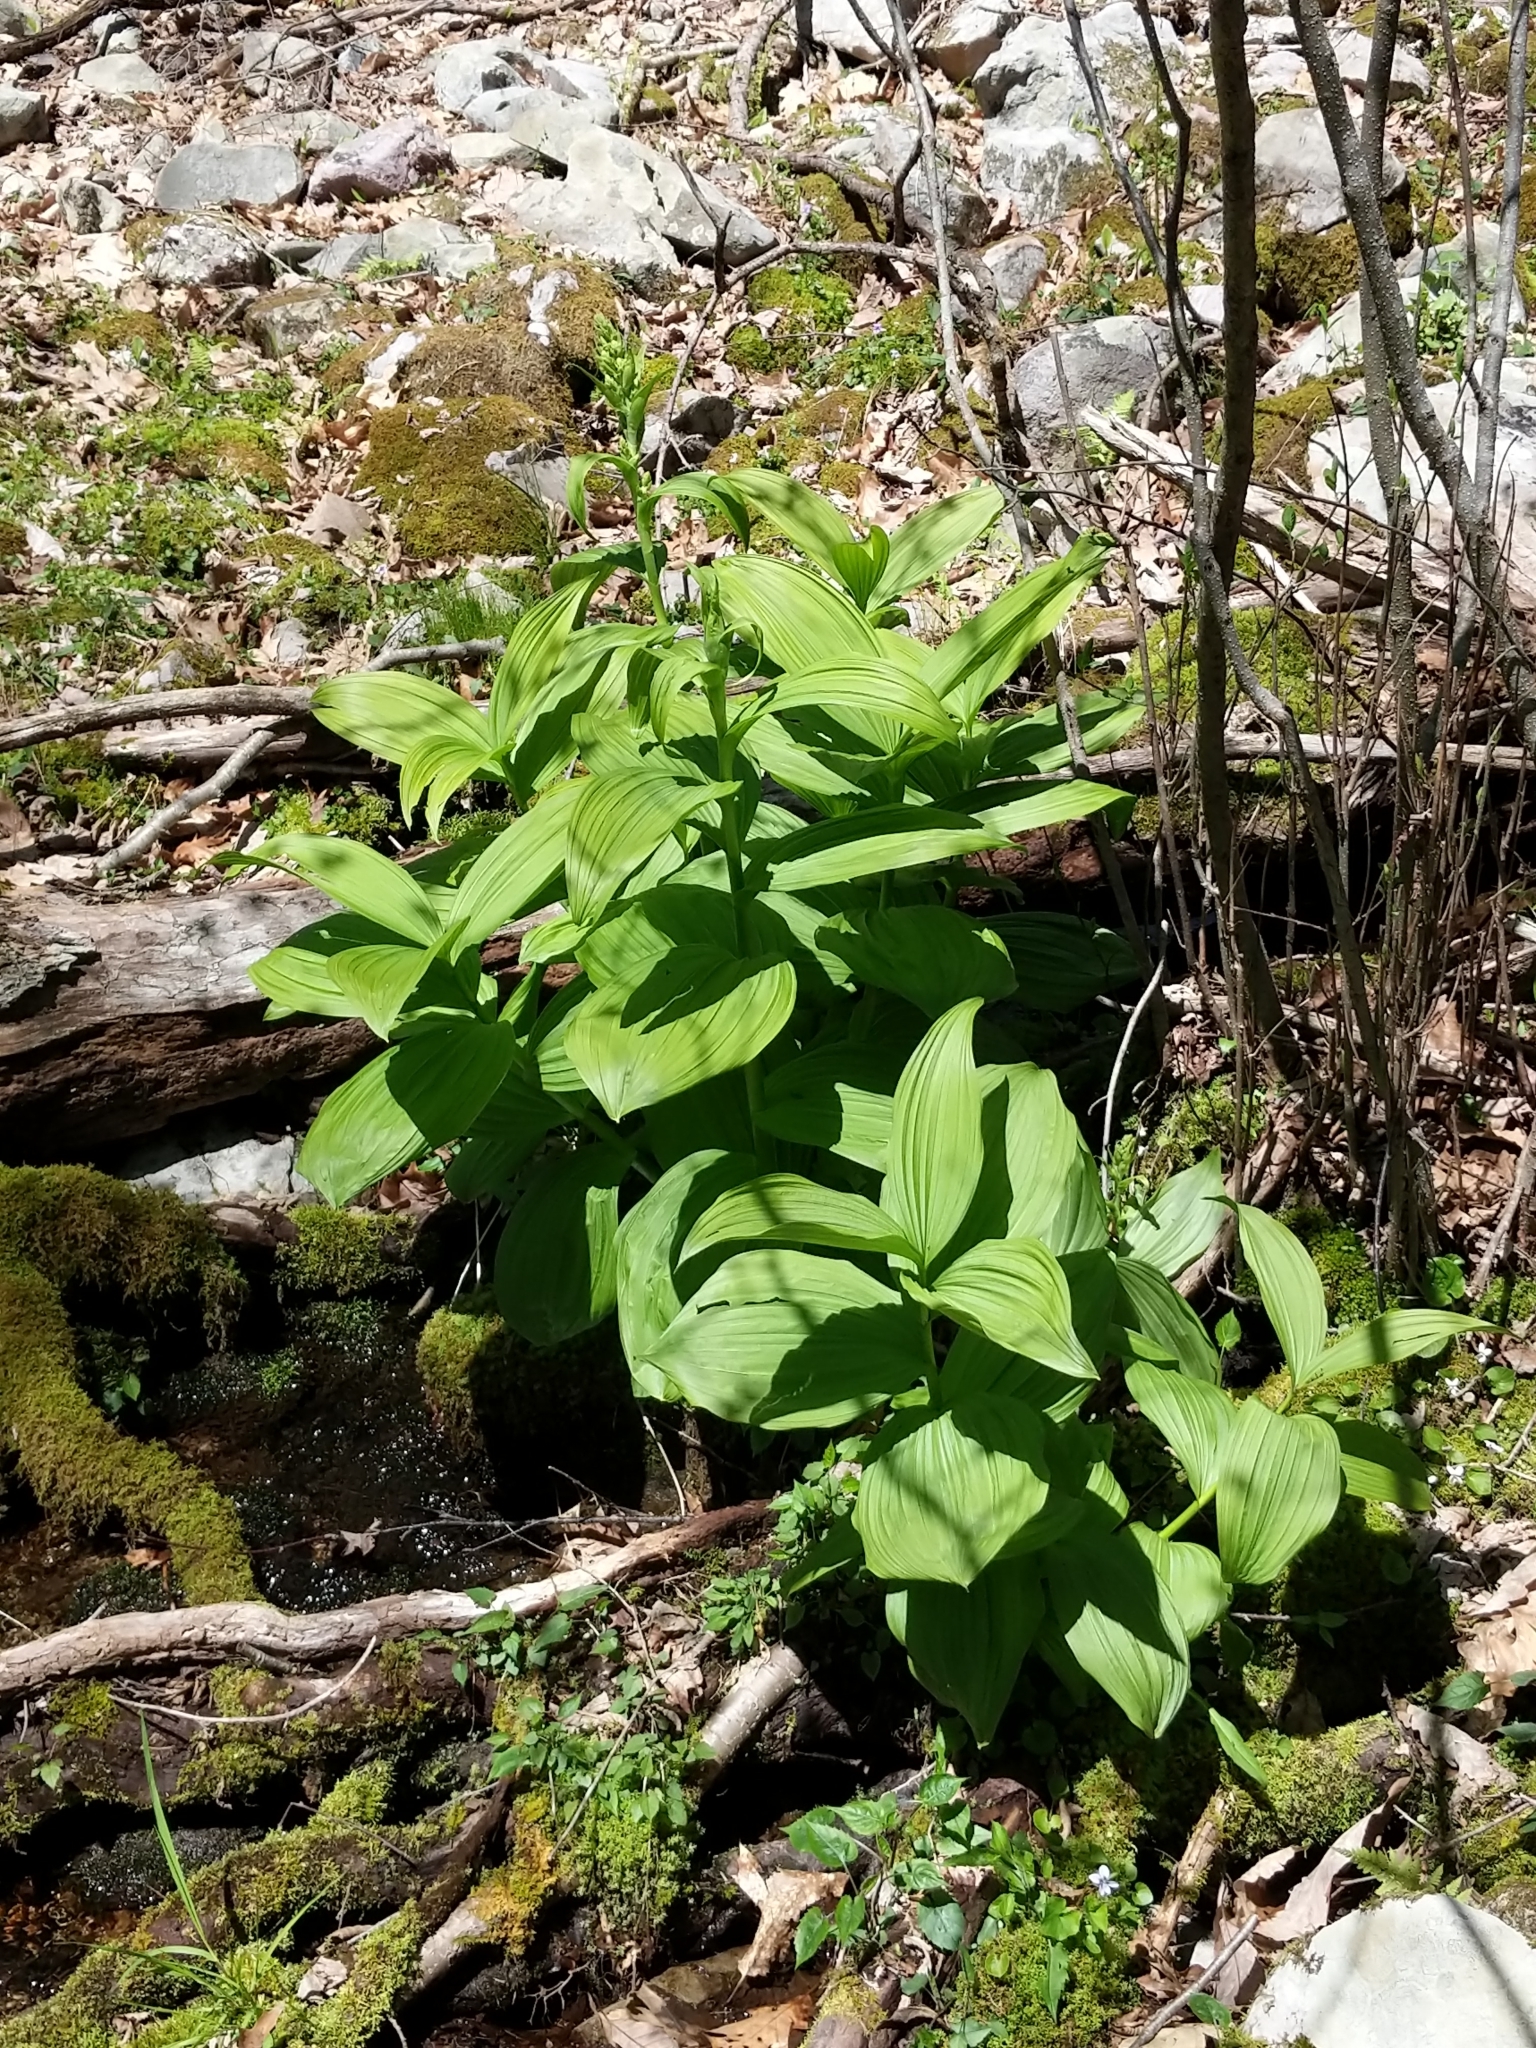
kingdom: Plantae
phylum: Tracheophyta
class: Liliopsida
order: Liliales
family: Melanthiaceae
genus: Veratrum
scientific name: Veratrum viride
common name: American false hellebore
